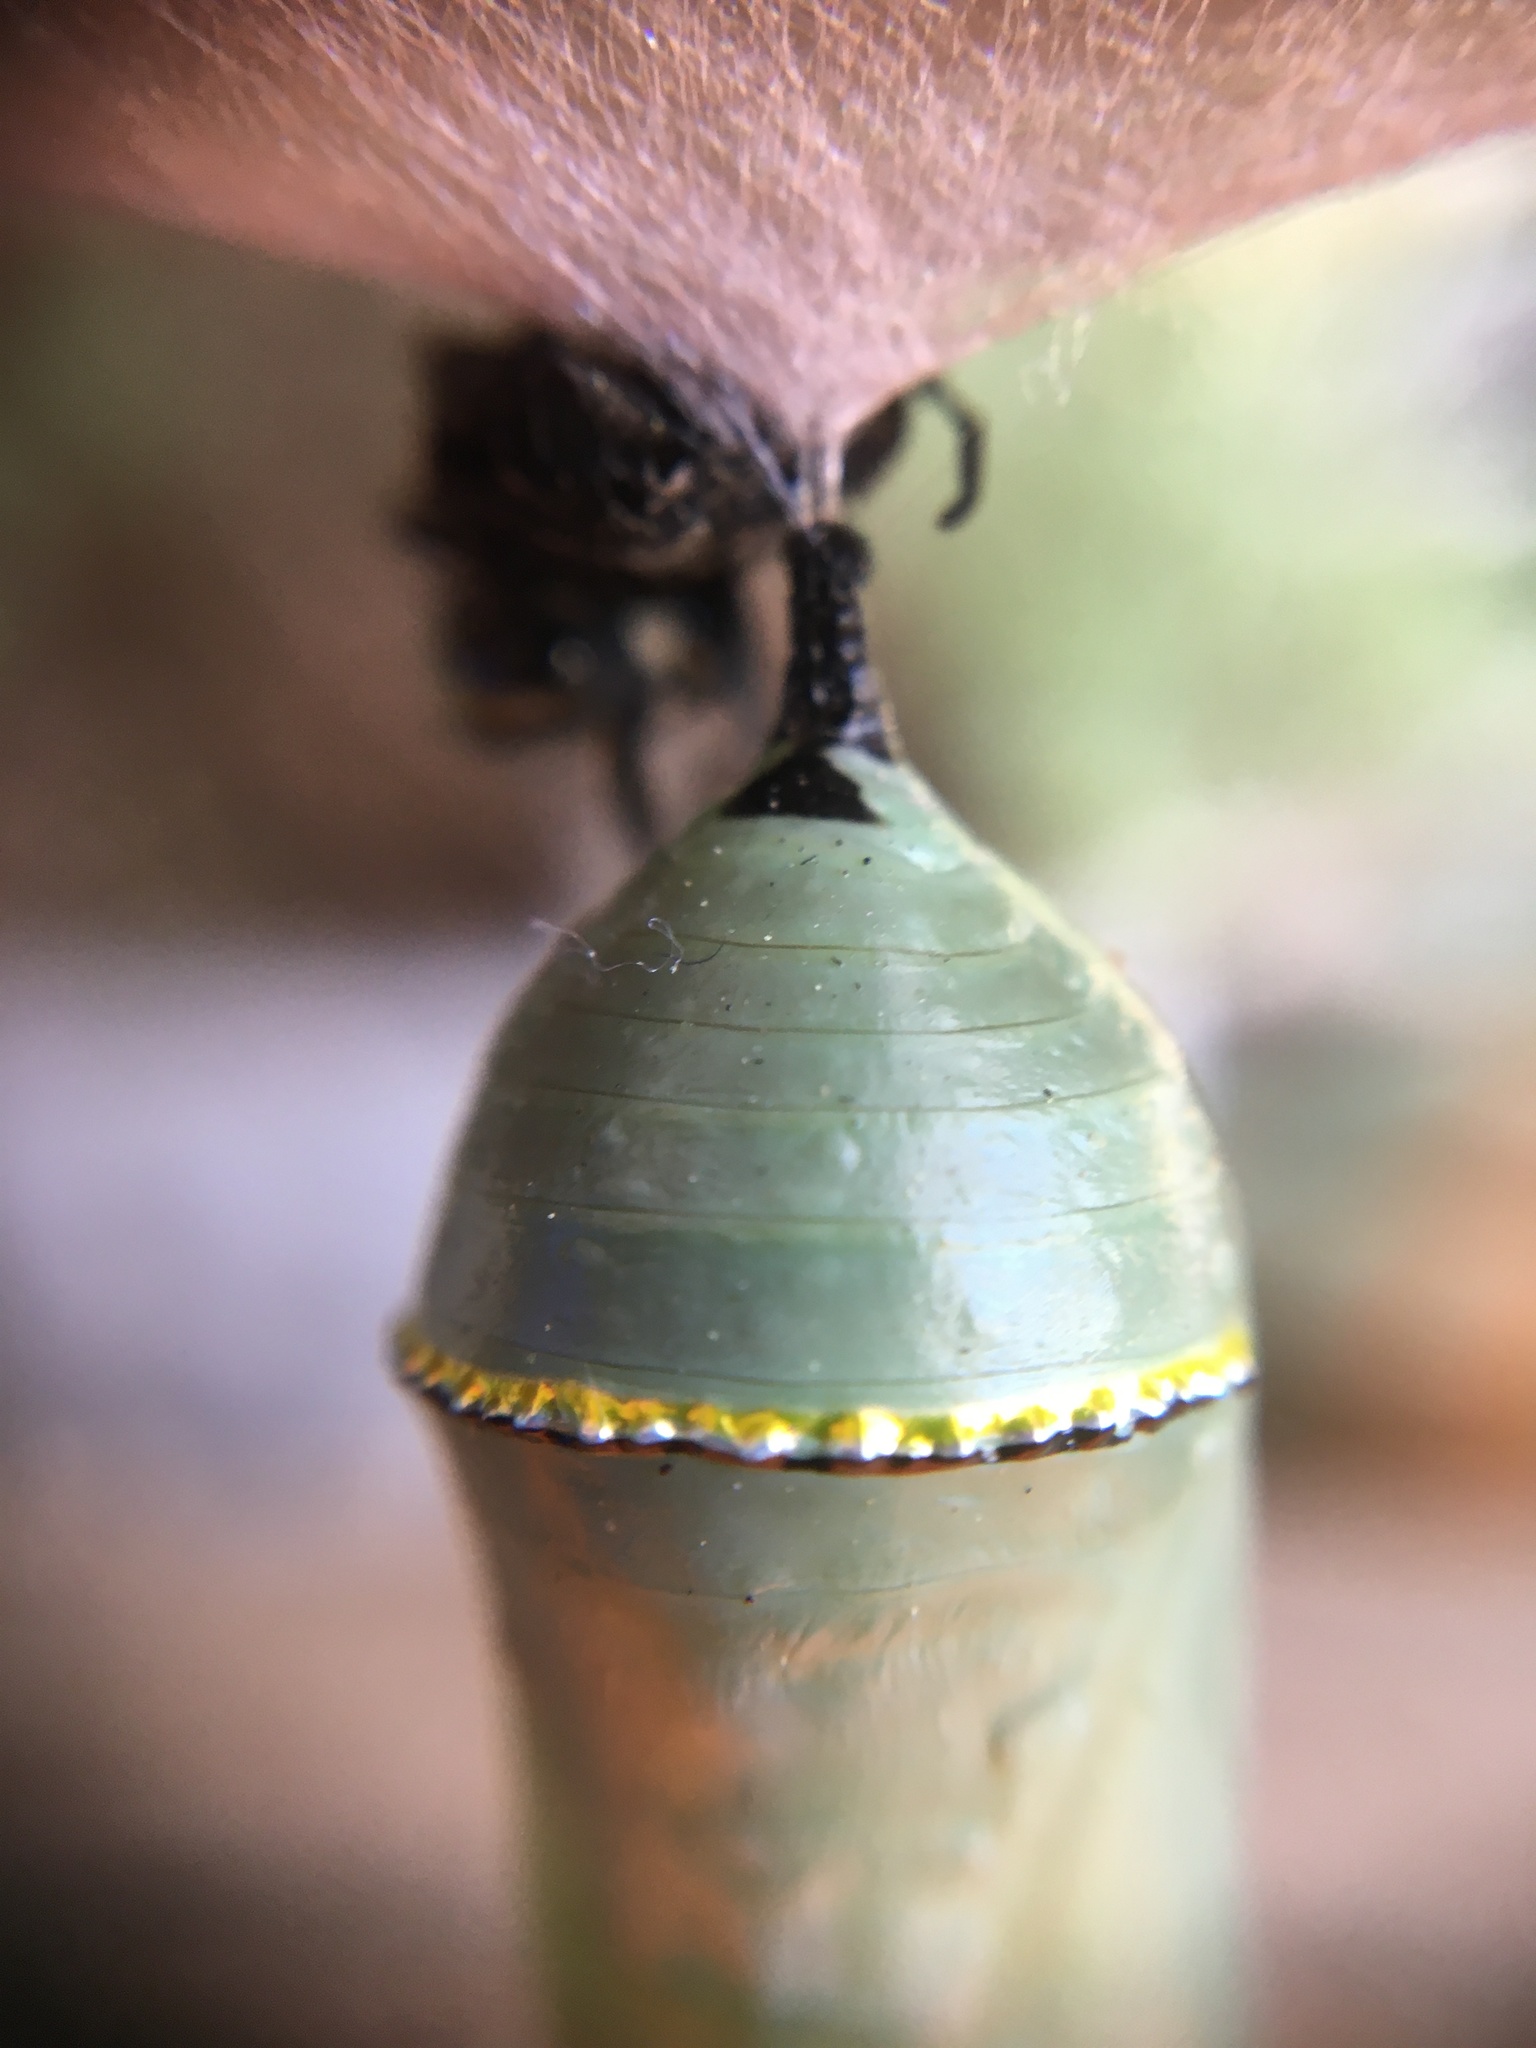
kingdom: Animalia
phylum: Arthropoda
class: Insecta
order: Lepidoptera
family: Nymphalidae
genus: Danaus
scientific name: Danaus plexippus
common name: Monarch
